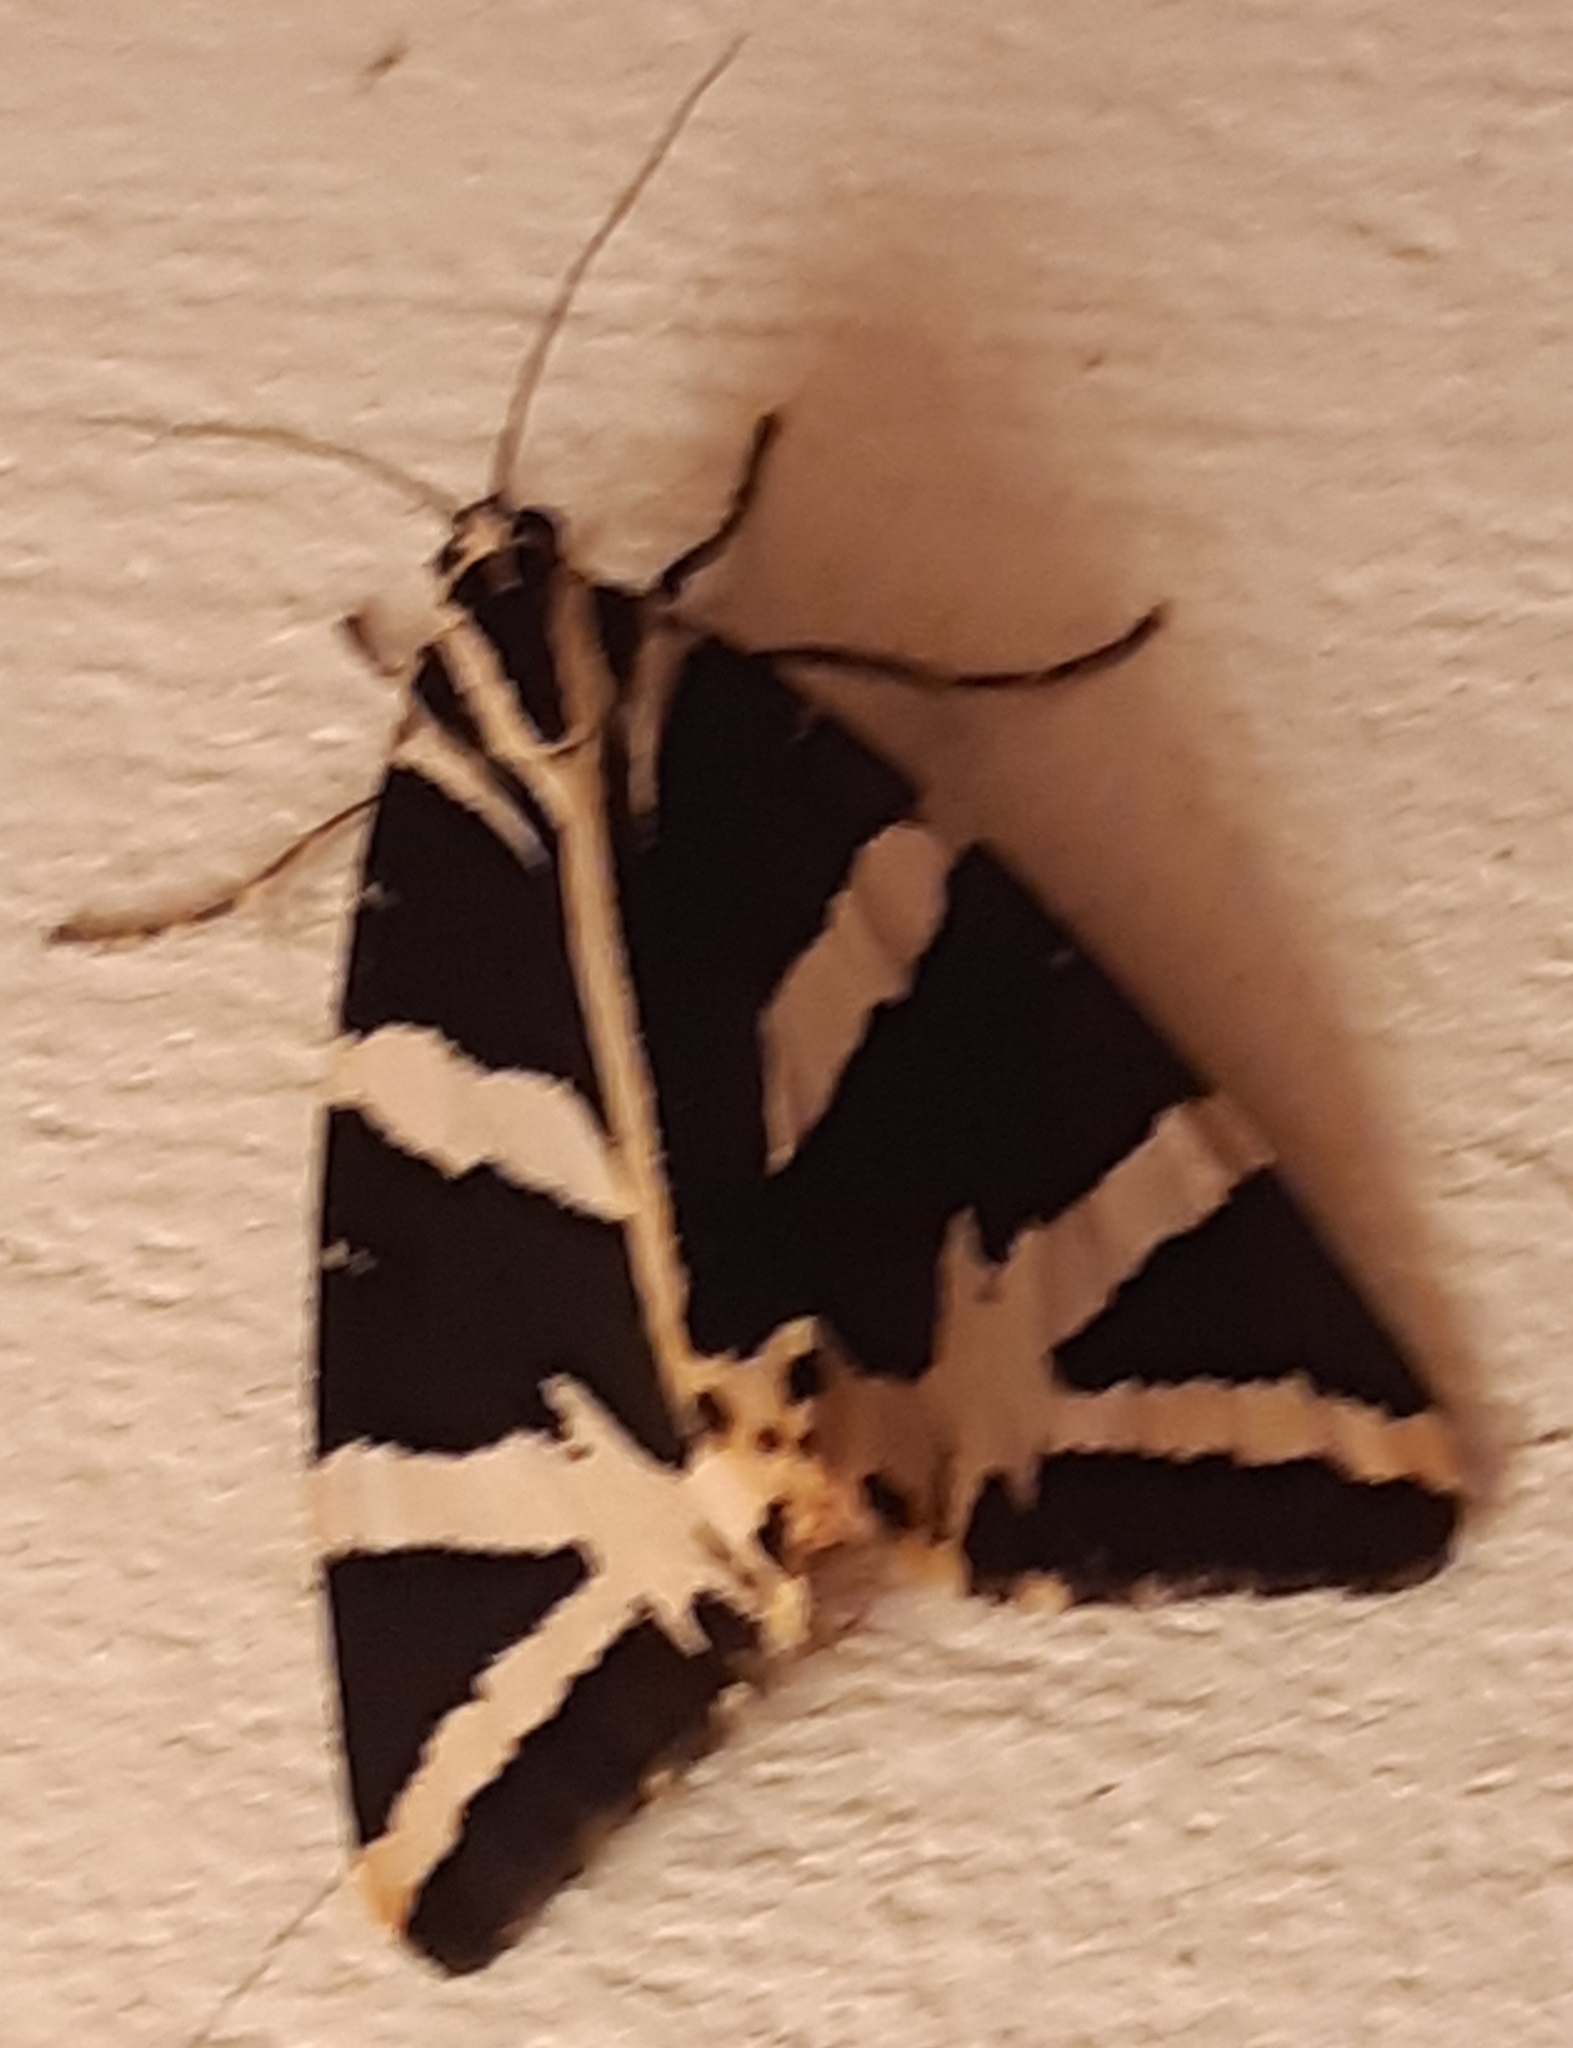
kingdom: Animalia
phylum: Arthropoda
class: Insecta
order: Lepidoptera
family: Erebidae
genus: Euplagia
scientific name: Euplagia quadripunctaria
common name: Jersey tiger
